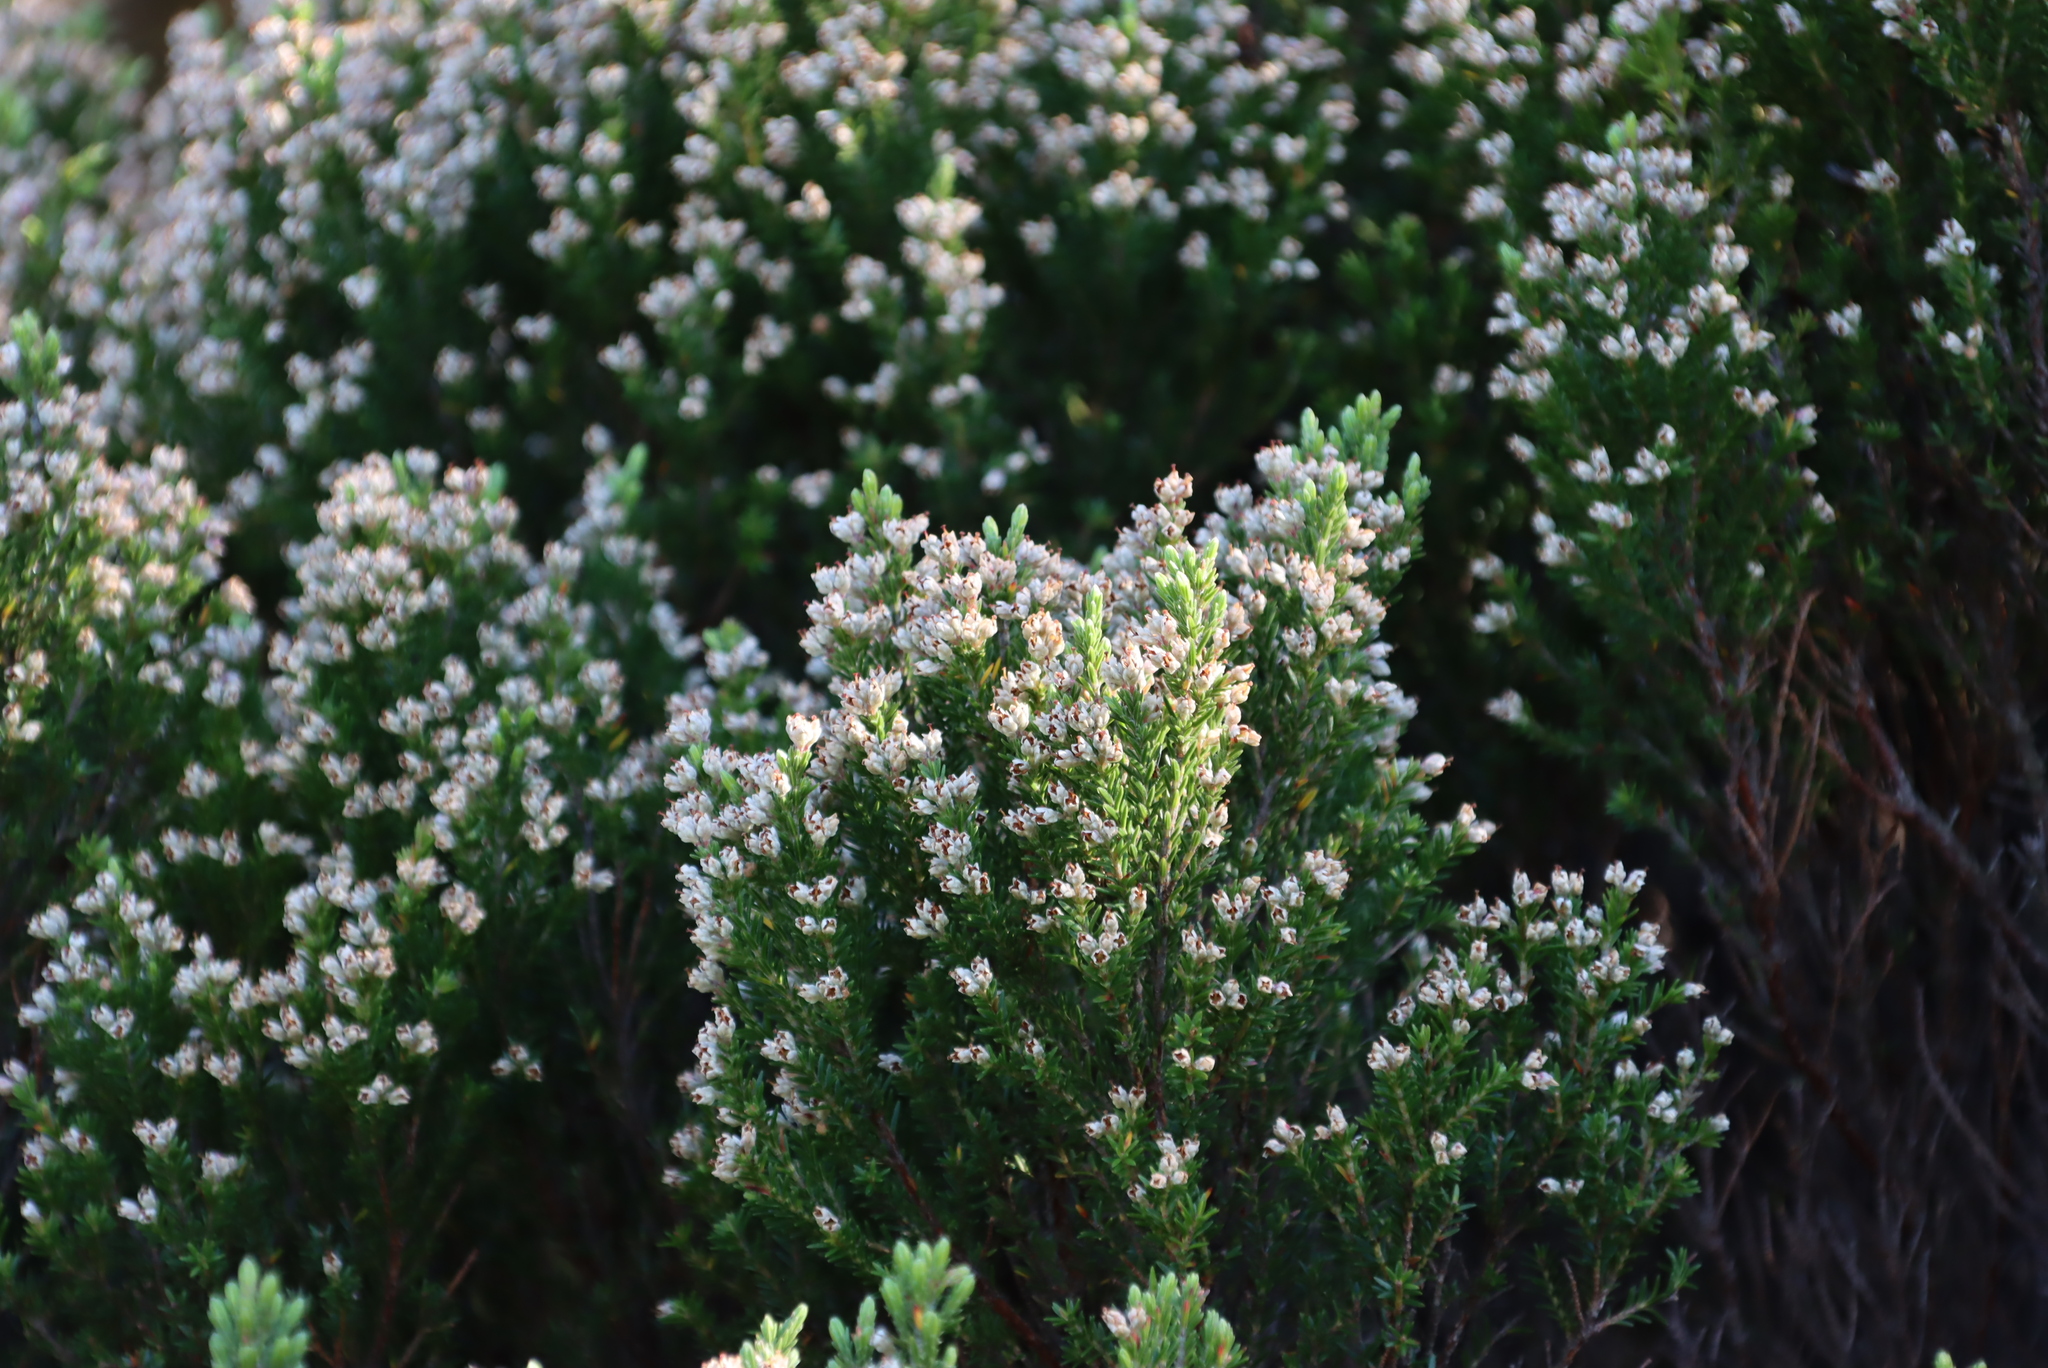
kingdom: Plantae
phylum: Tracheophyta
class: Magnoliopsida
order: Ericales
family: Ericaceae
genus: Erica
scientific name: Erica diosmifolia
